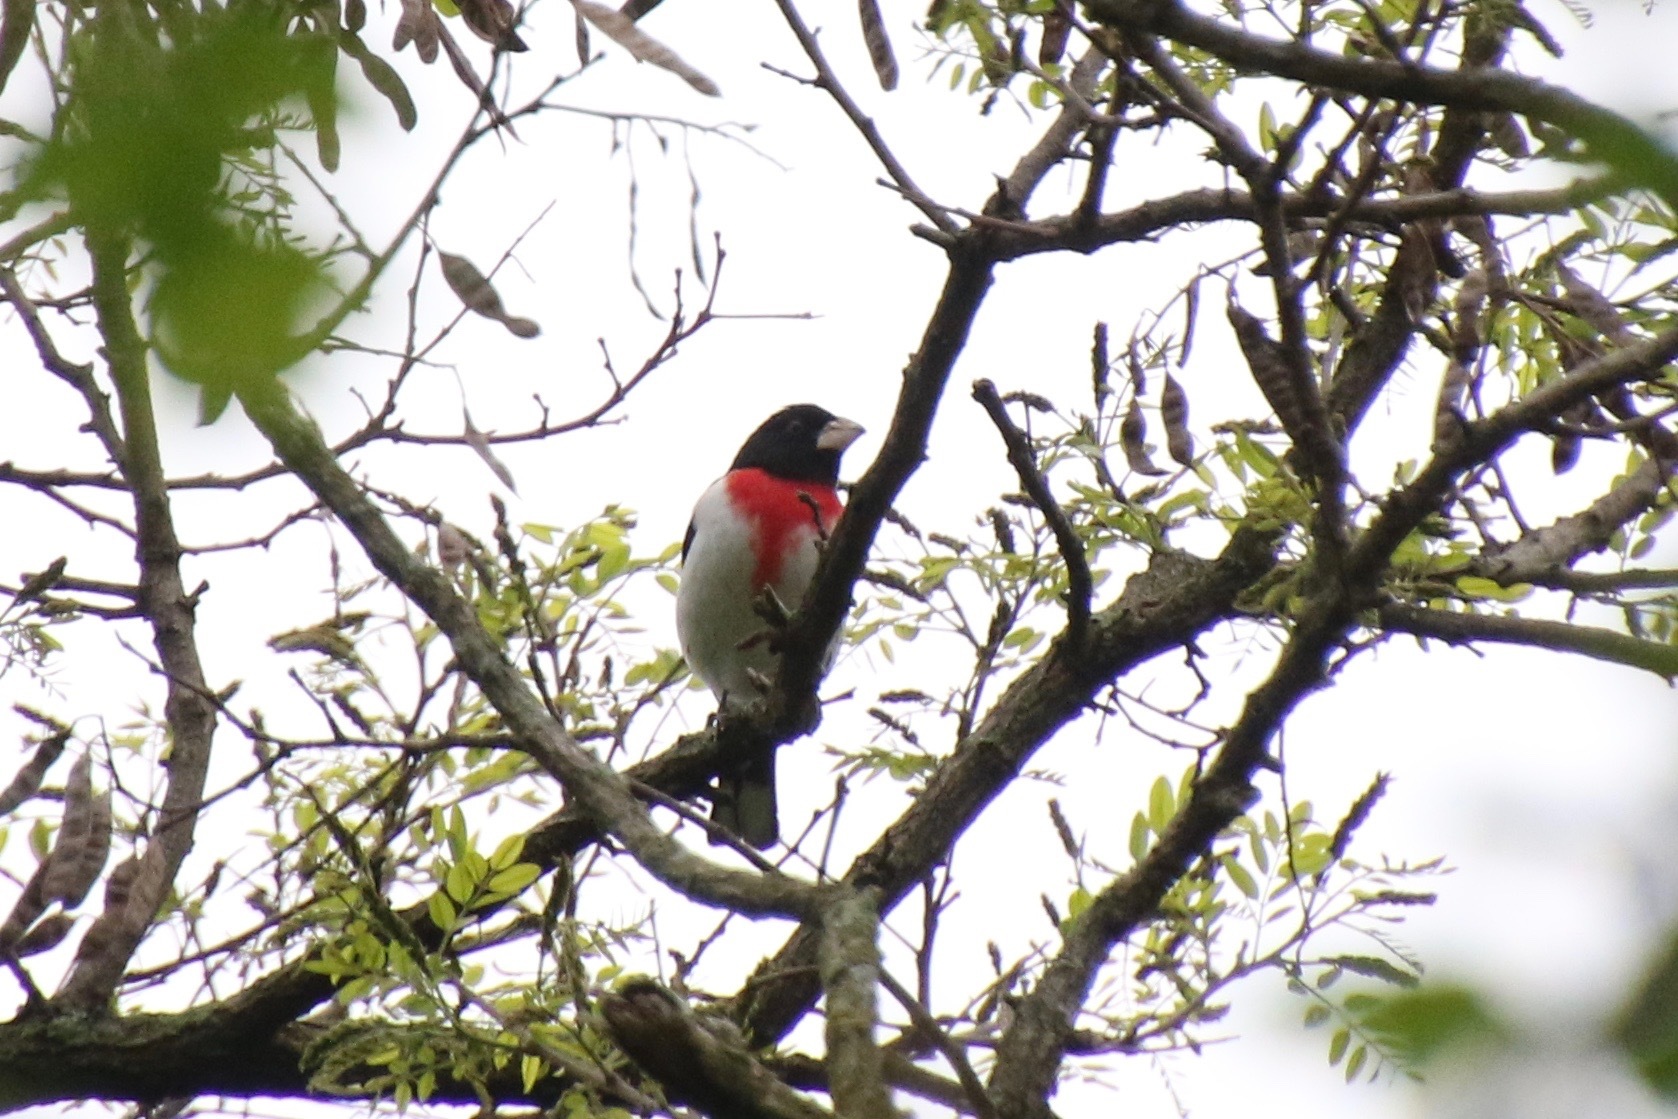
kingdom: Animalia
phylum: Chordata
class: Aves
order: Passeriformes
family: Cardinalidae
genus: Pheucticus
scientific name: Pheucticus ludovicianus
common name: Rose-breasted grosbeak
